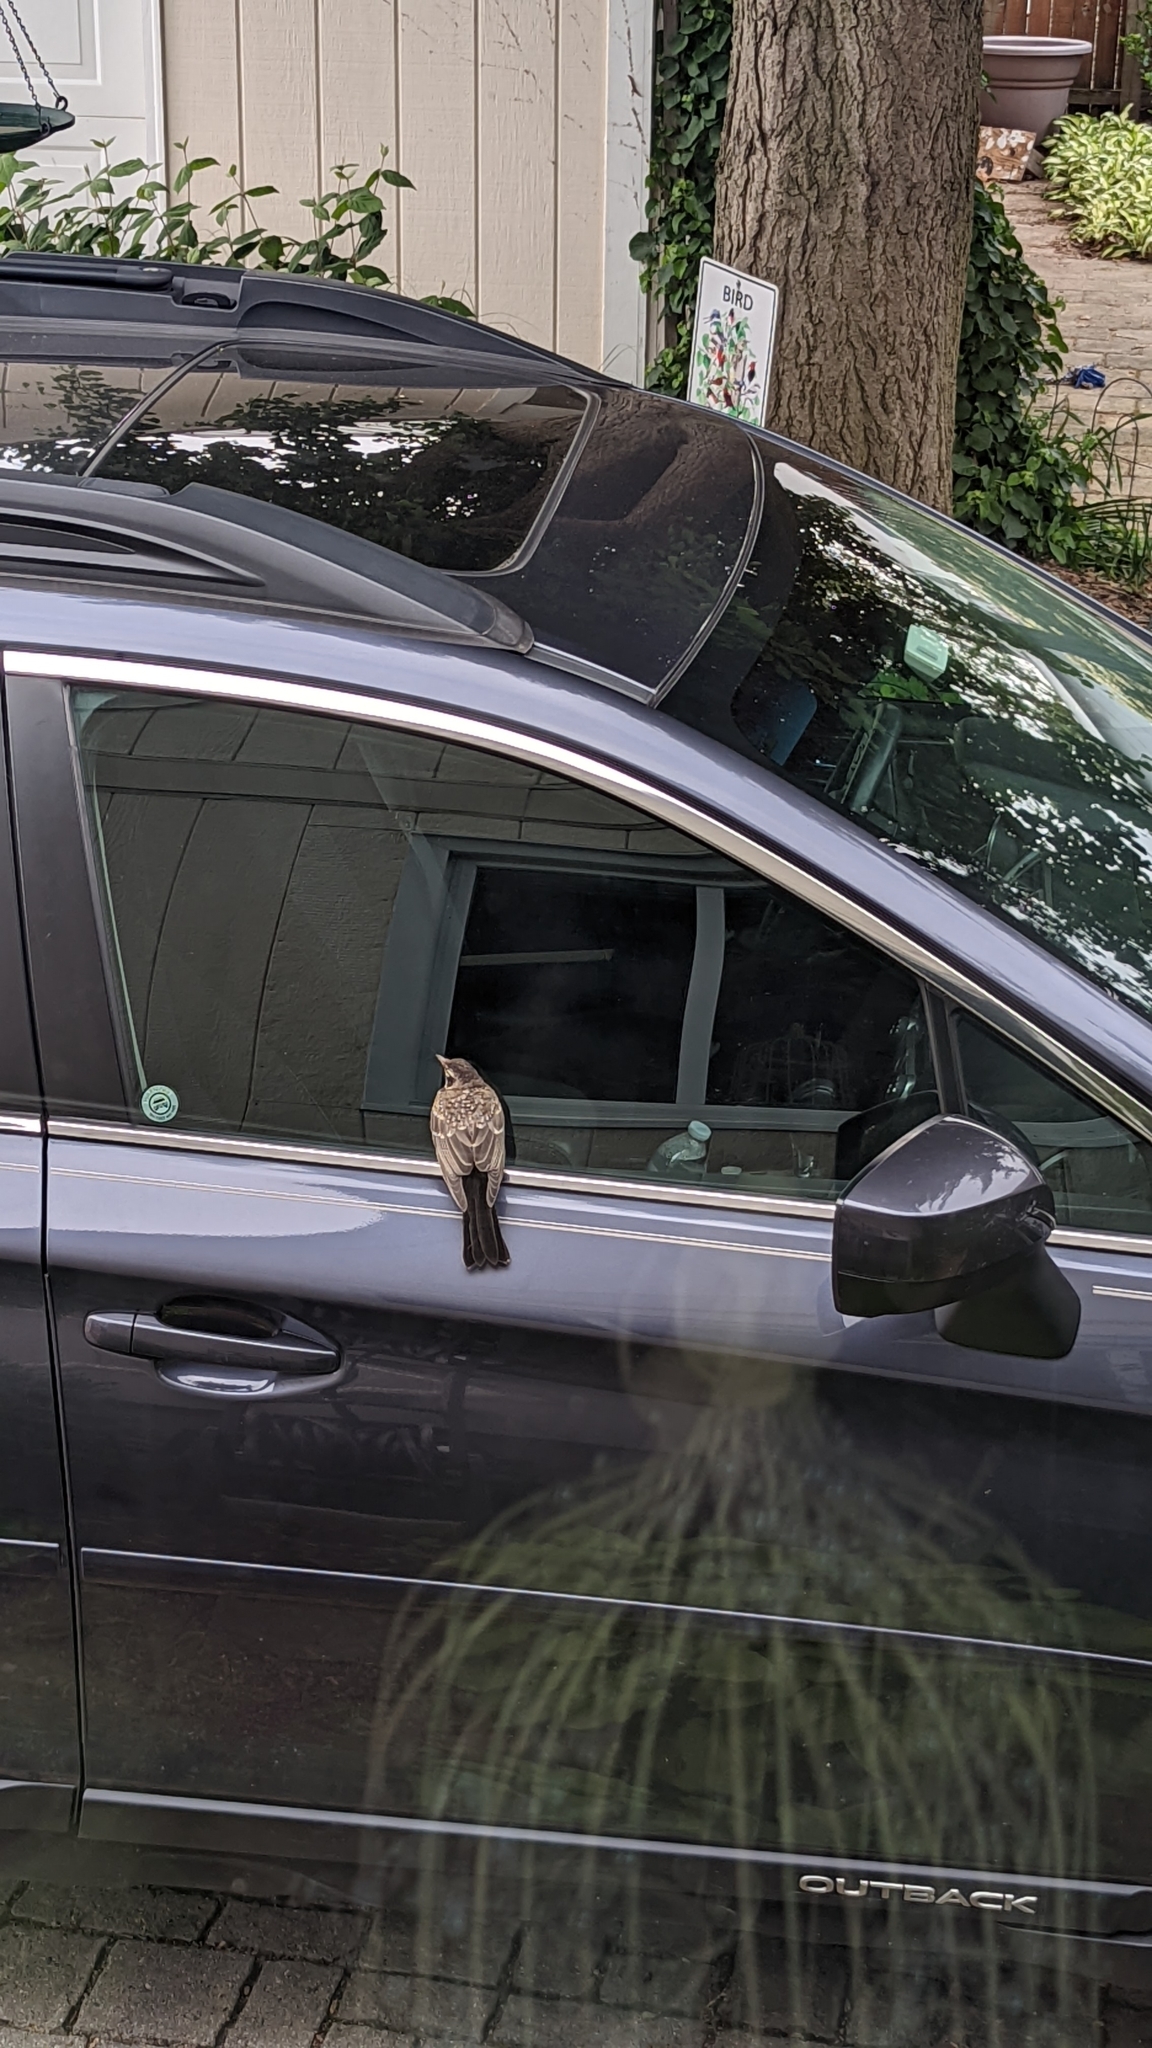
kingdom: Animalia
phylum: Chordata
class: Aves
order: Passeriformes
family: Turdidae
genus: Turdus
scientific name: Turdus migratorius
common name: American robin
